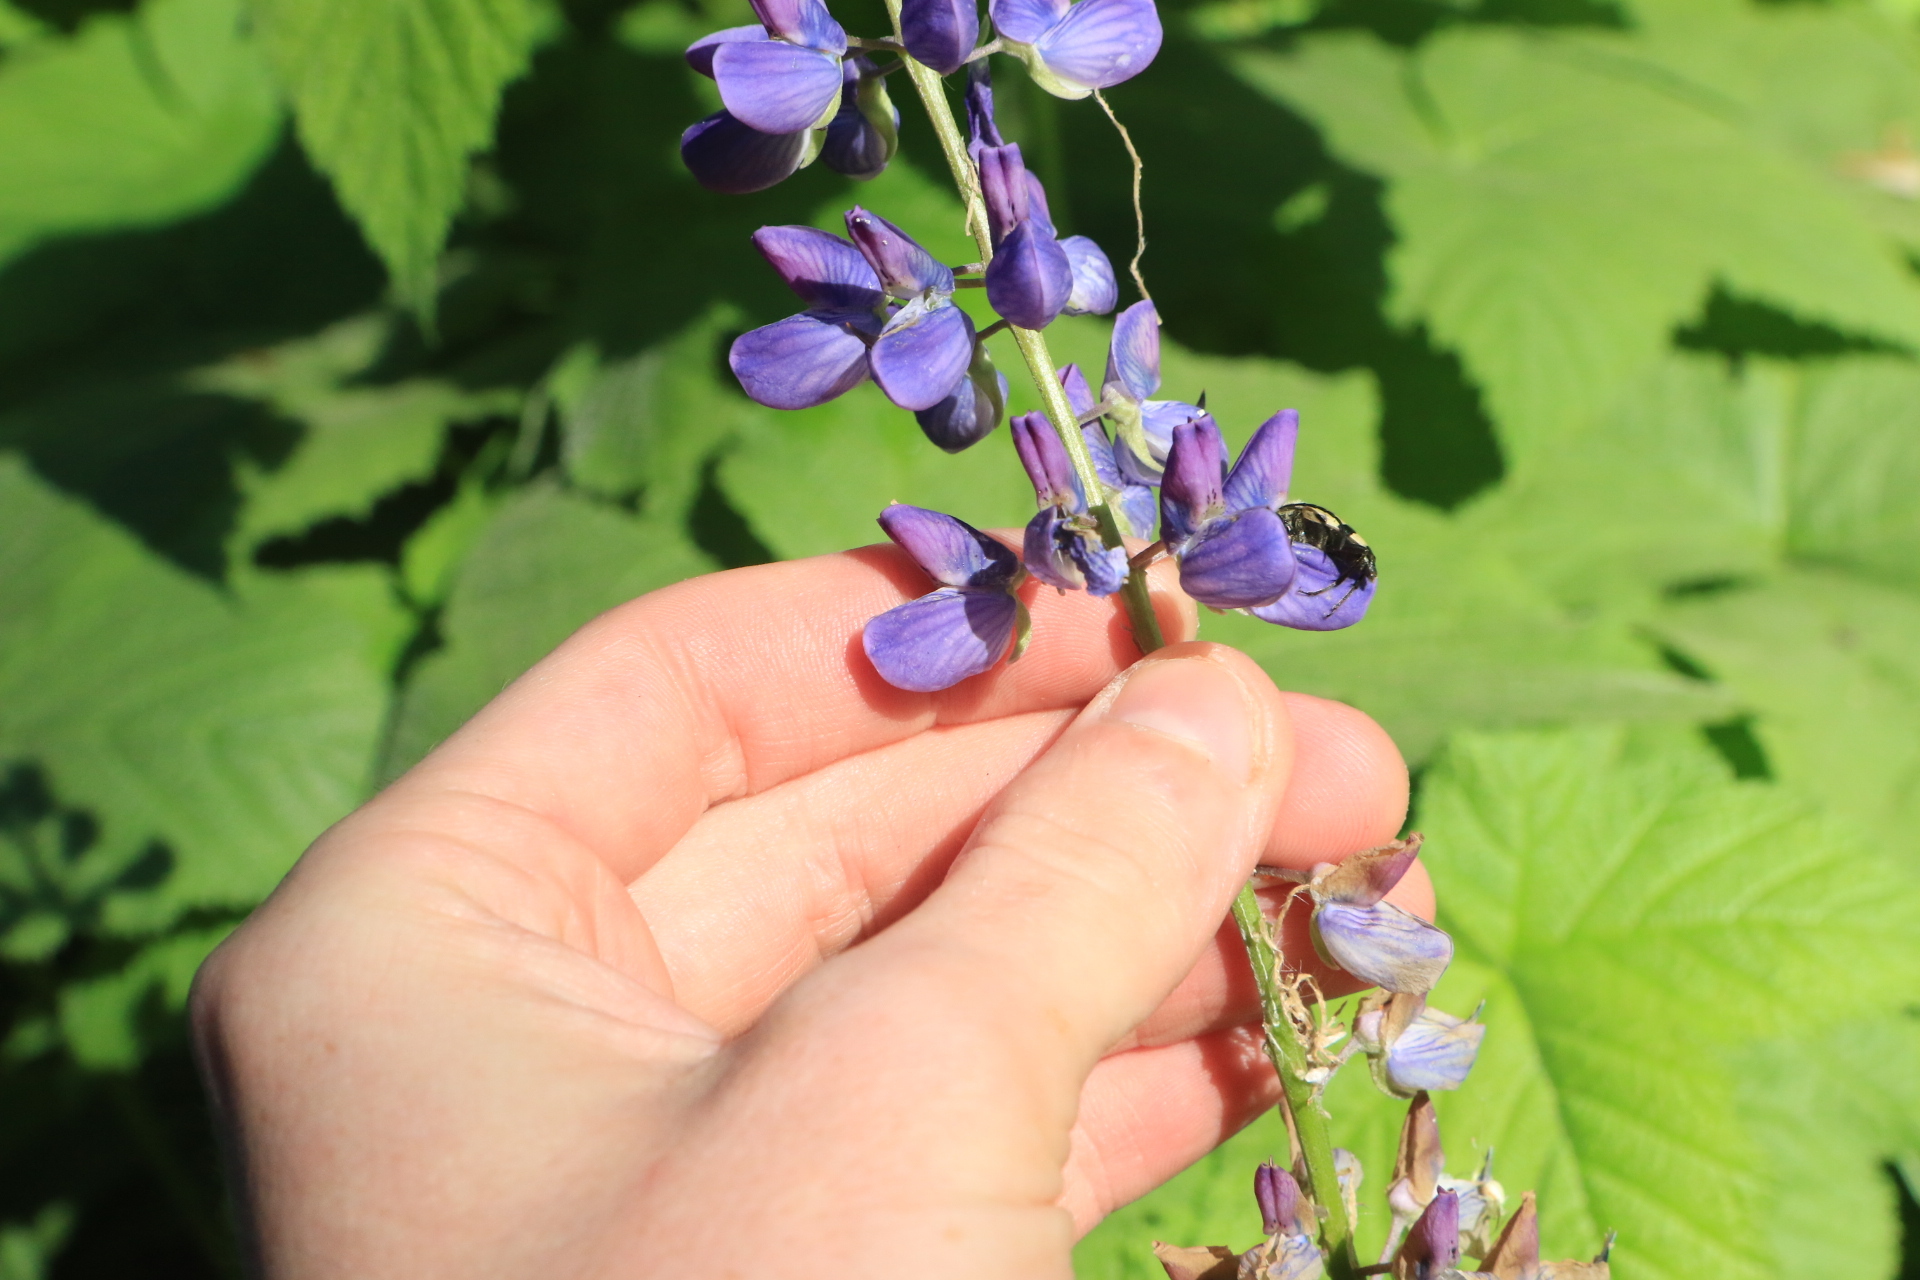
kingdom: Plantae
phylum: Tracheophyta
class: Magnoliopsida
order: Fabales
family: Fabaceae
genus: Lupinus
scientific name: Lupinus latifolius
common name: Broad-leaved lupine
